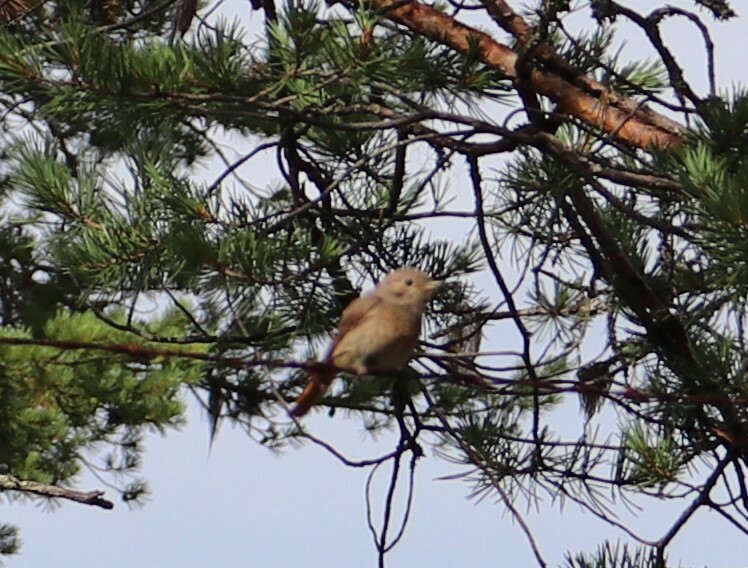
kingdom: Animalia
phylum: Chordata
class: Aves
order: Passeriformes
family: Muscicapidae
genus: Phoenicurus
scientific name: Phoenicurus phoenicurus
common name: Common redstart
